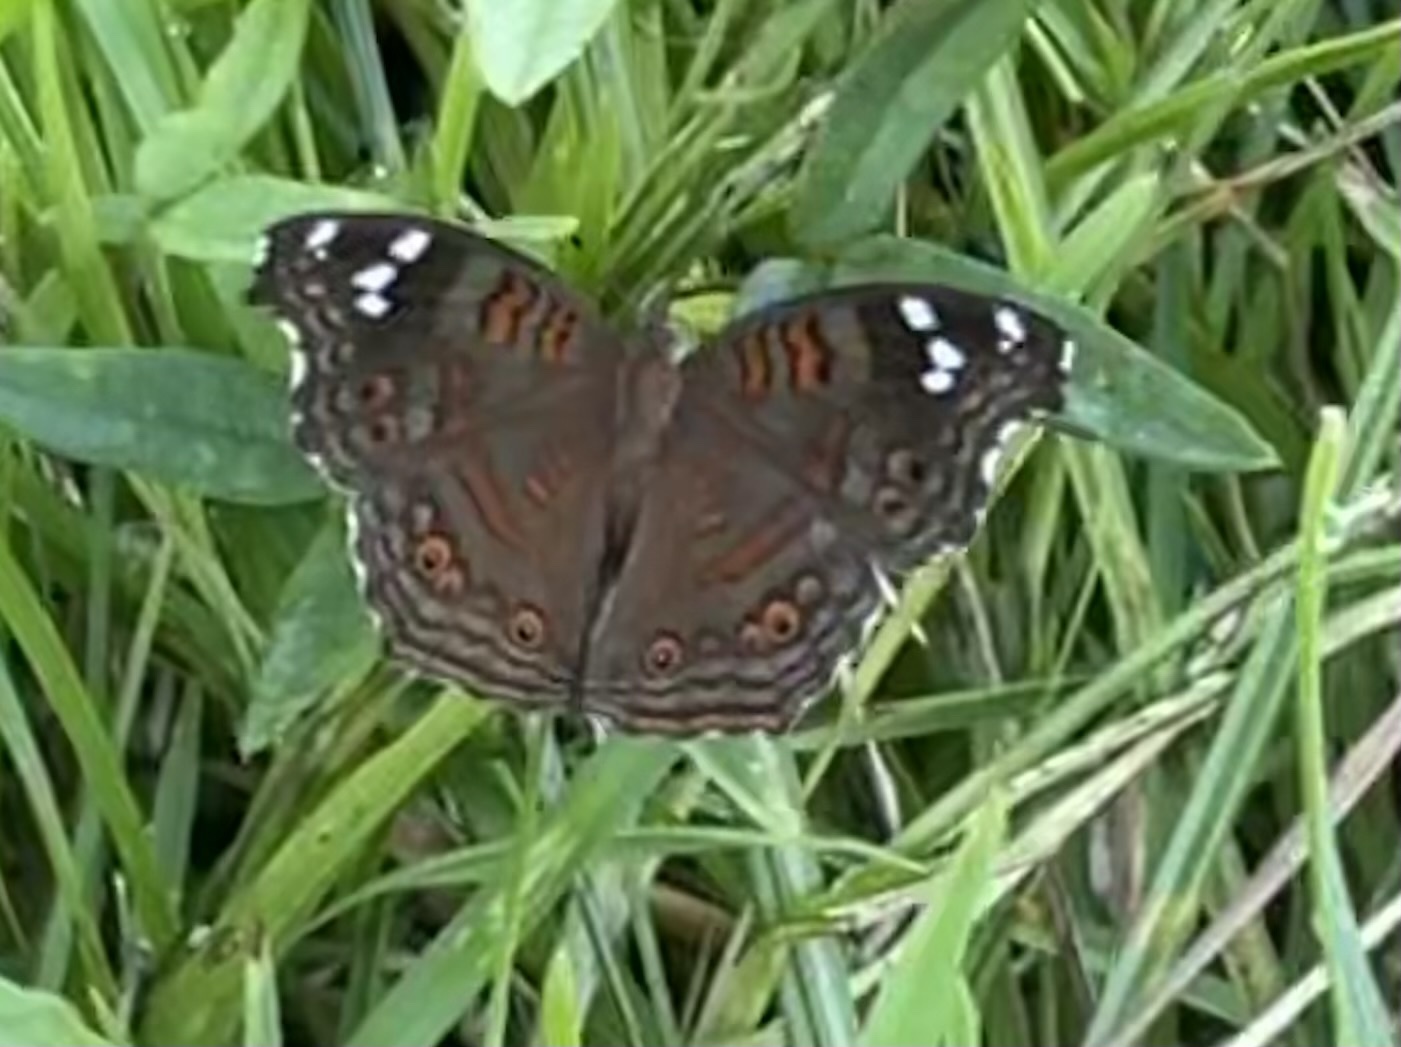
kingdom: Animalia
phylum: Arthropoda
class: Insecta
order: Lepidoptera
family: Nymphalidae
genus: Junonia
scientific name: Junonia natalica
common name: Brown pansy
